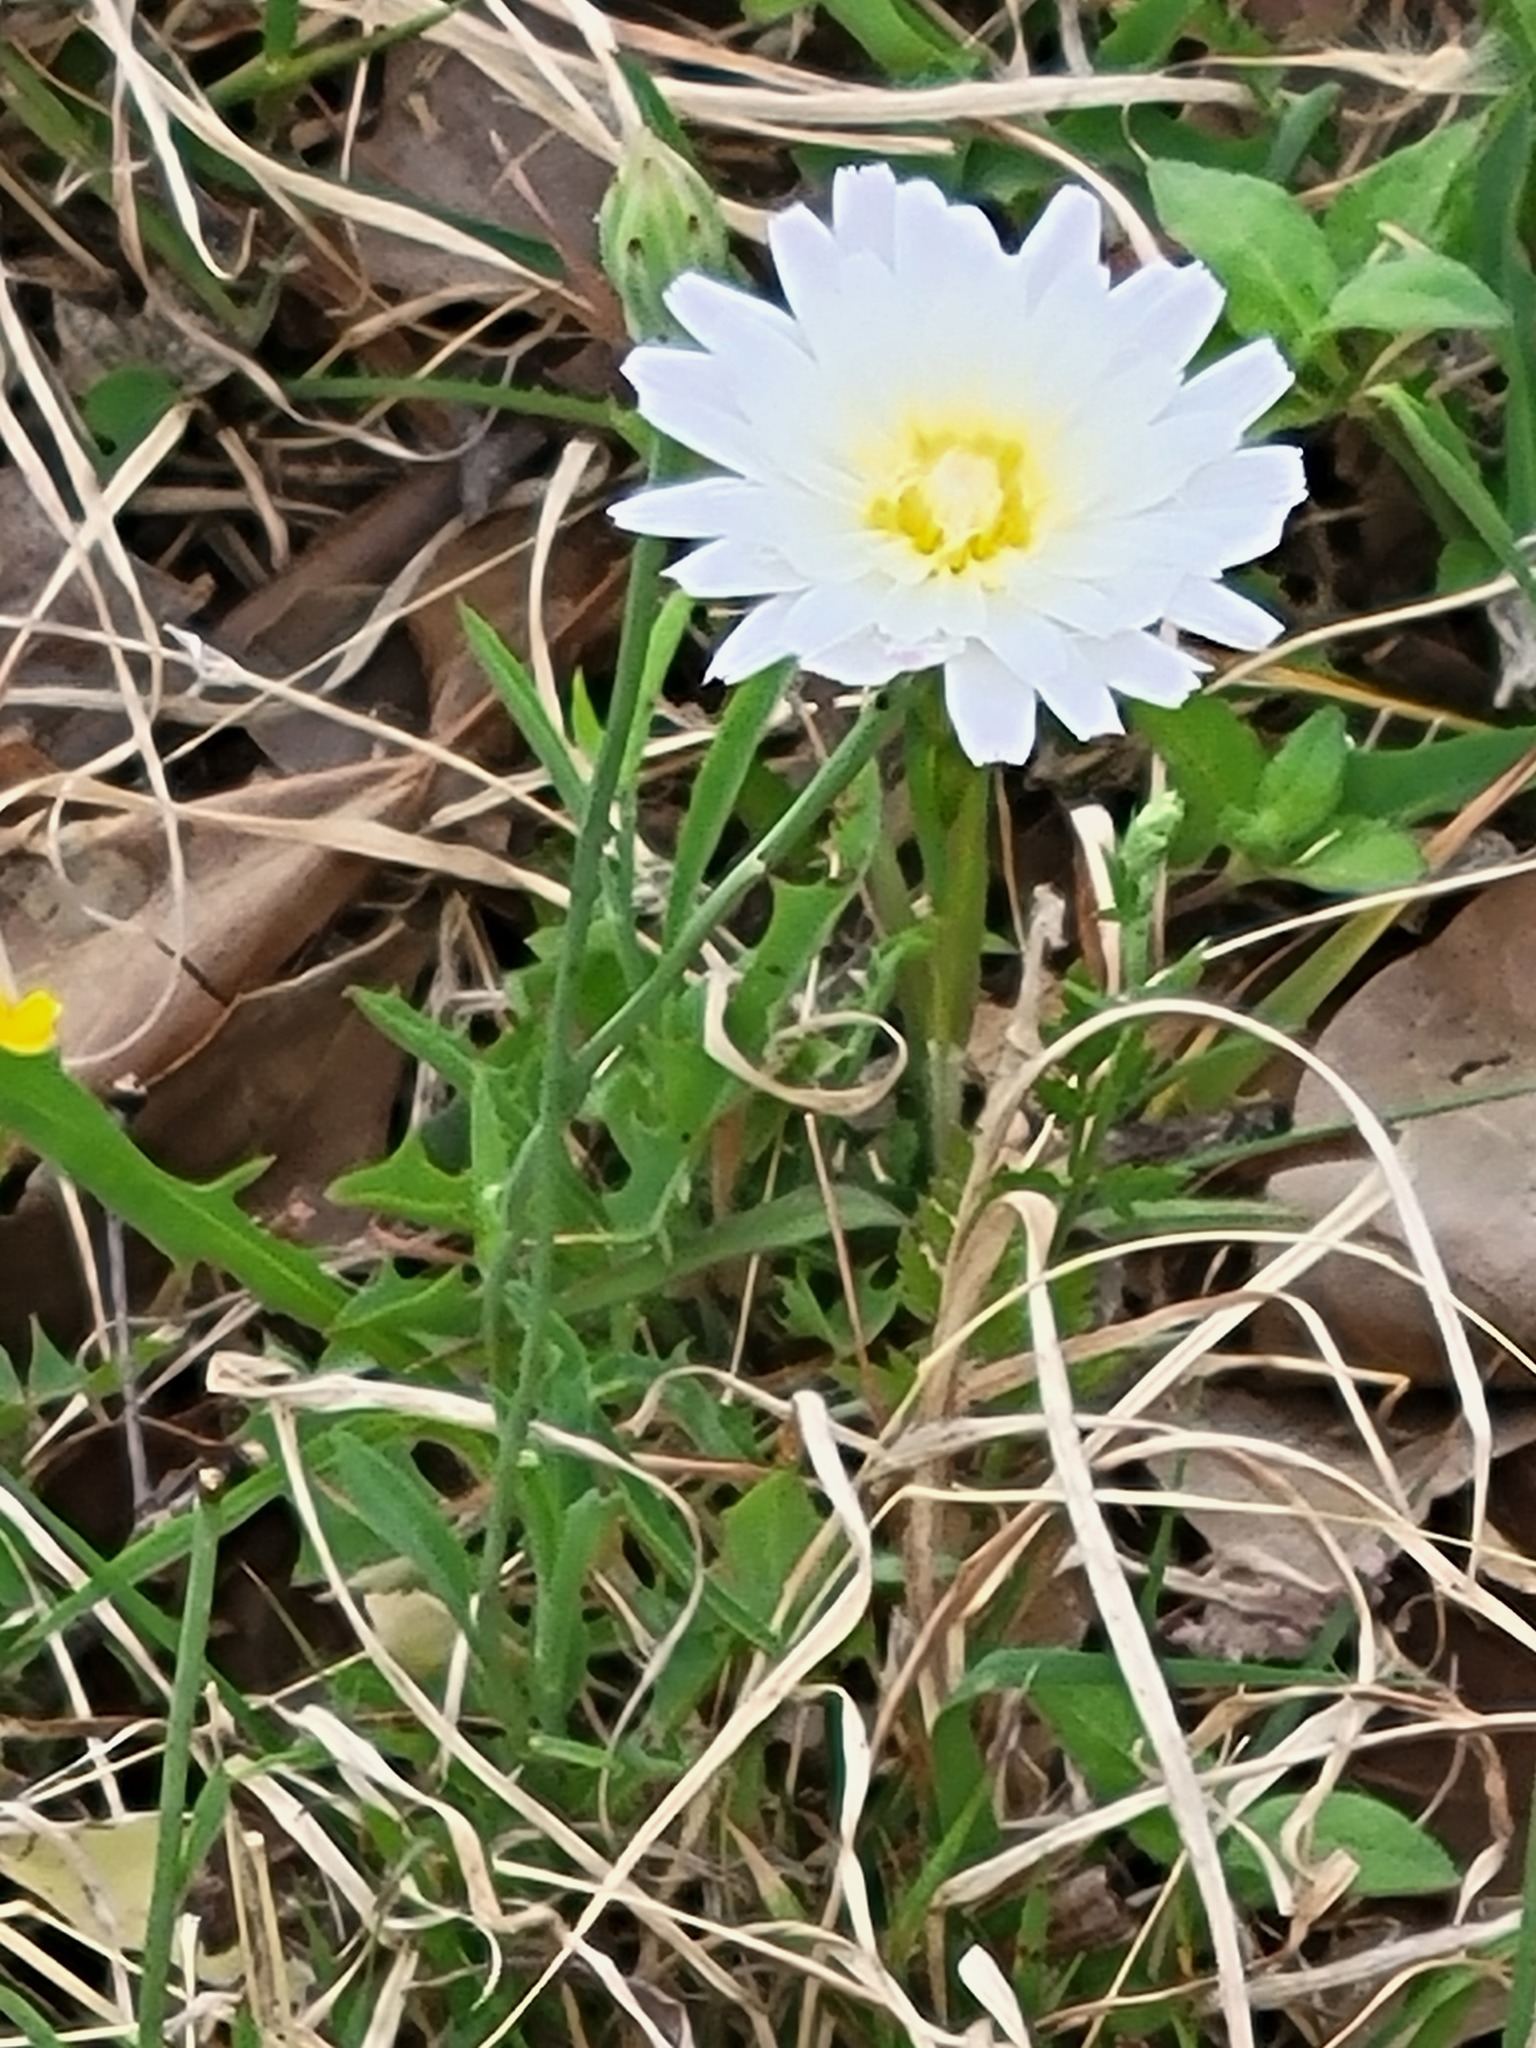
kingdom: Plantae
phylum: Tracheophyta
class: Magnoliopsida
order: Asterales
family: Asteraceae
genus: Pinaropappus
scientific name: Pinaropappus roseus
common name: Rock-lettuce
